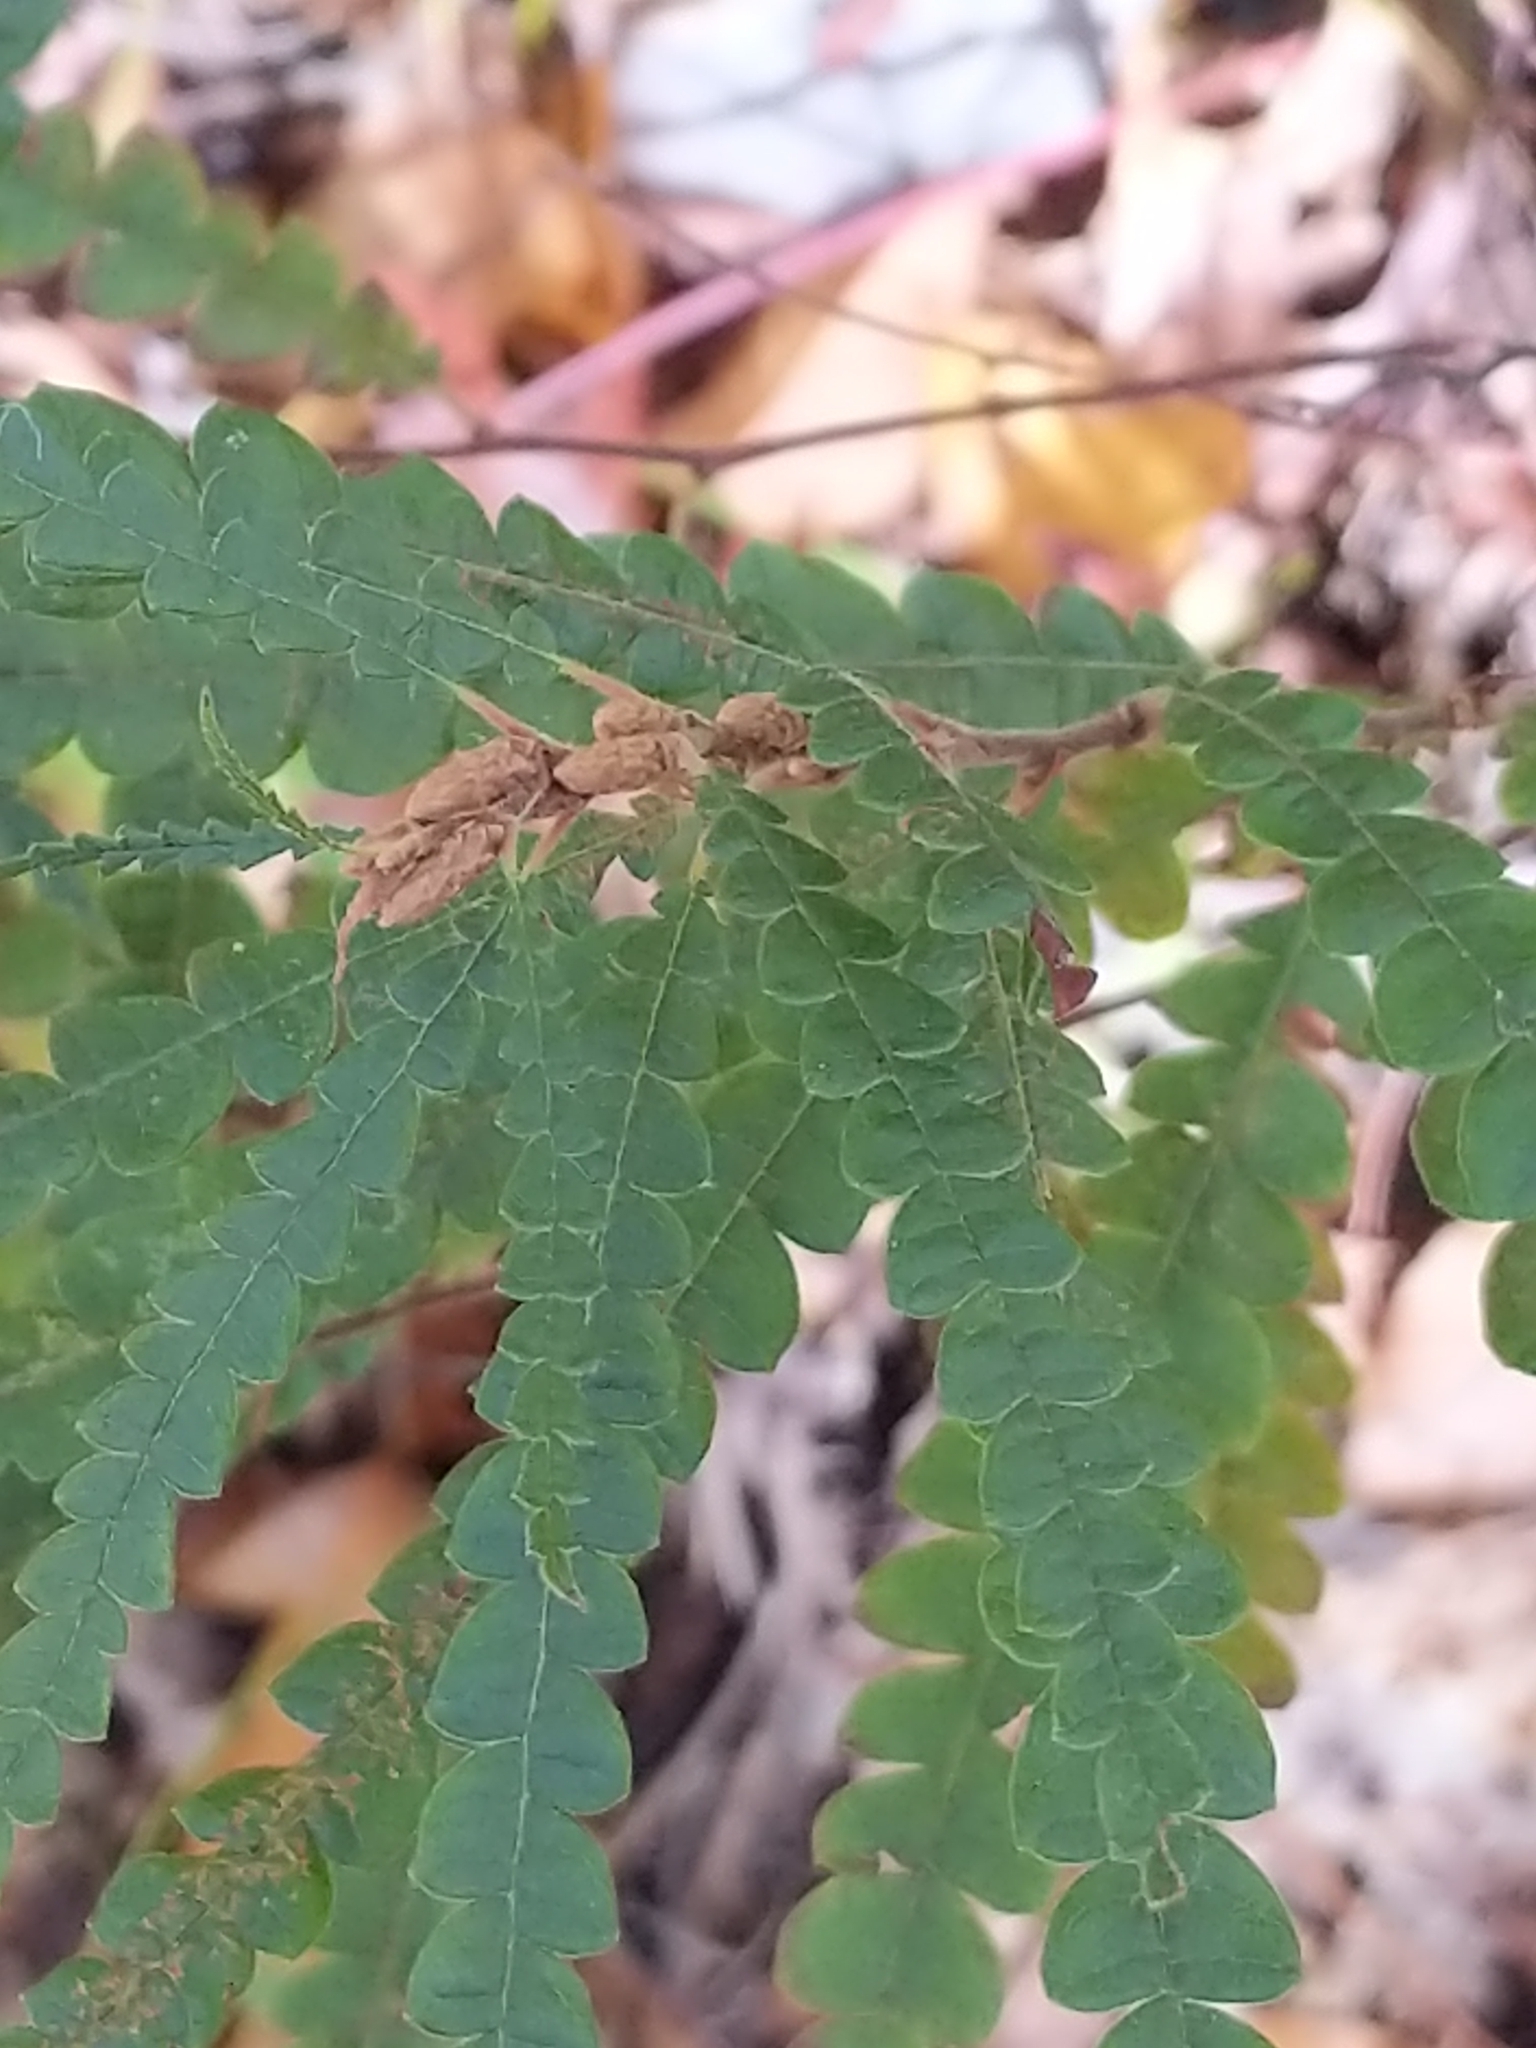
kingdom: Plantae
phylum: Tracheophyta
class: Magnoliopsida
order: Fagales
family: Myricaceae
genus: Comptonia
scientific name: Comptonia peregrina
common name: Sweet-fern
